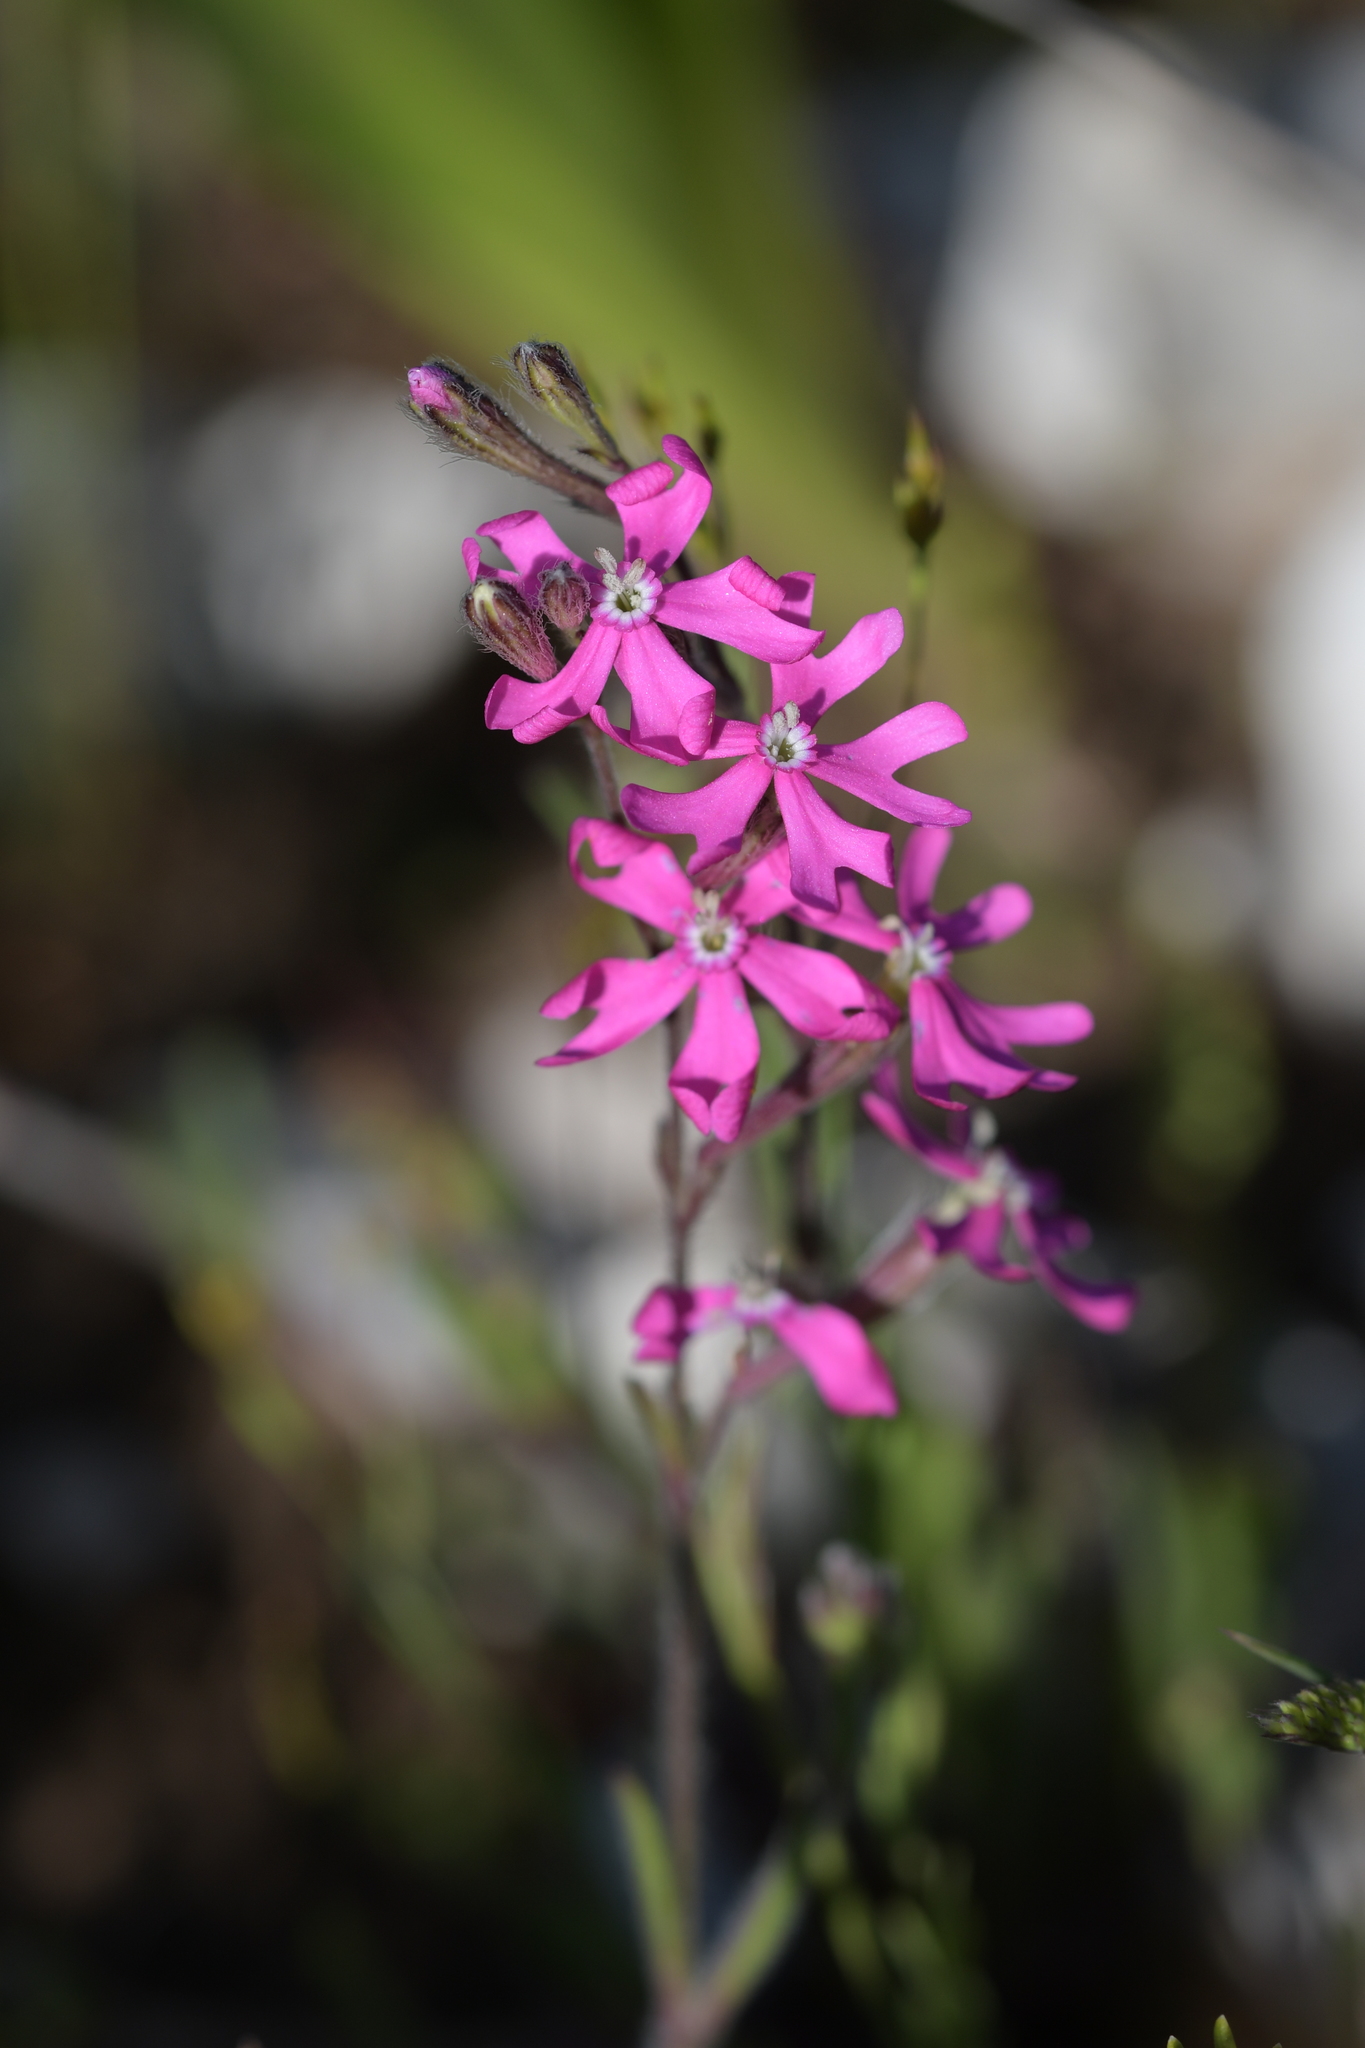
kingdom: Plantae
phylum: Tracheophyta
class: Magnoliopsida
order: Caryophyllales
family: Caryophyllaceae
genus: Silene
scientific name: Silene scabriflora
